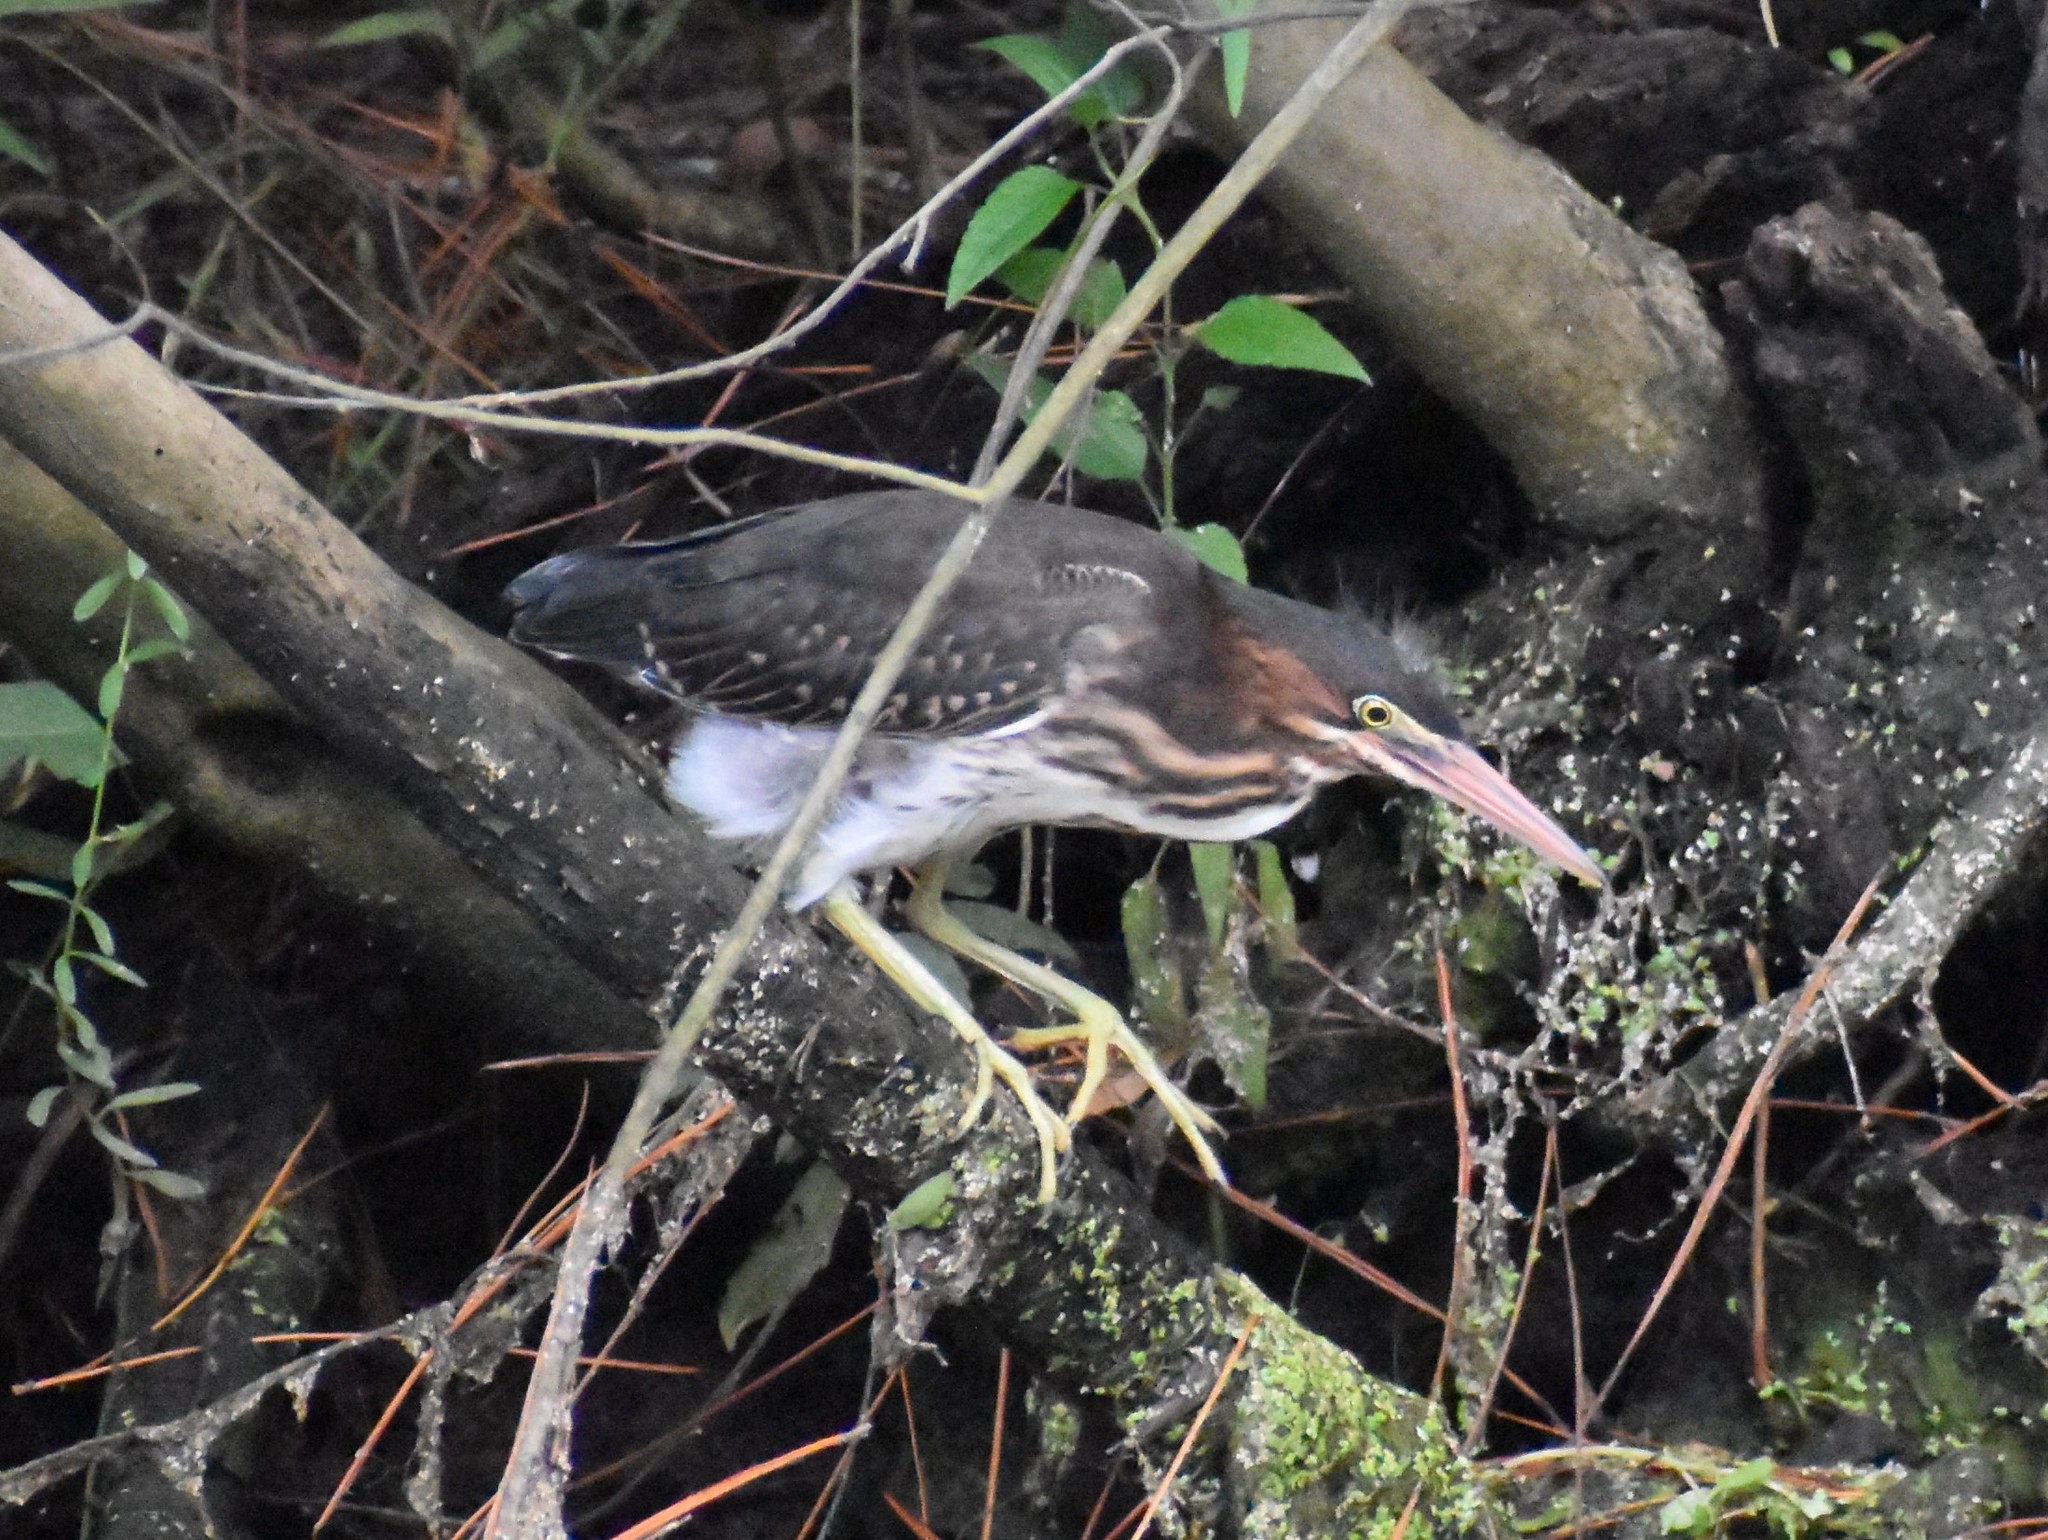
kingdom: Animalia
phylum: Chordata
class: Aves
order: Pelecaniformes
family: Ardeidae
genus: Butorides
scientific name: Butorides virescens
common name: Green heron
